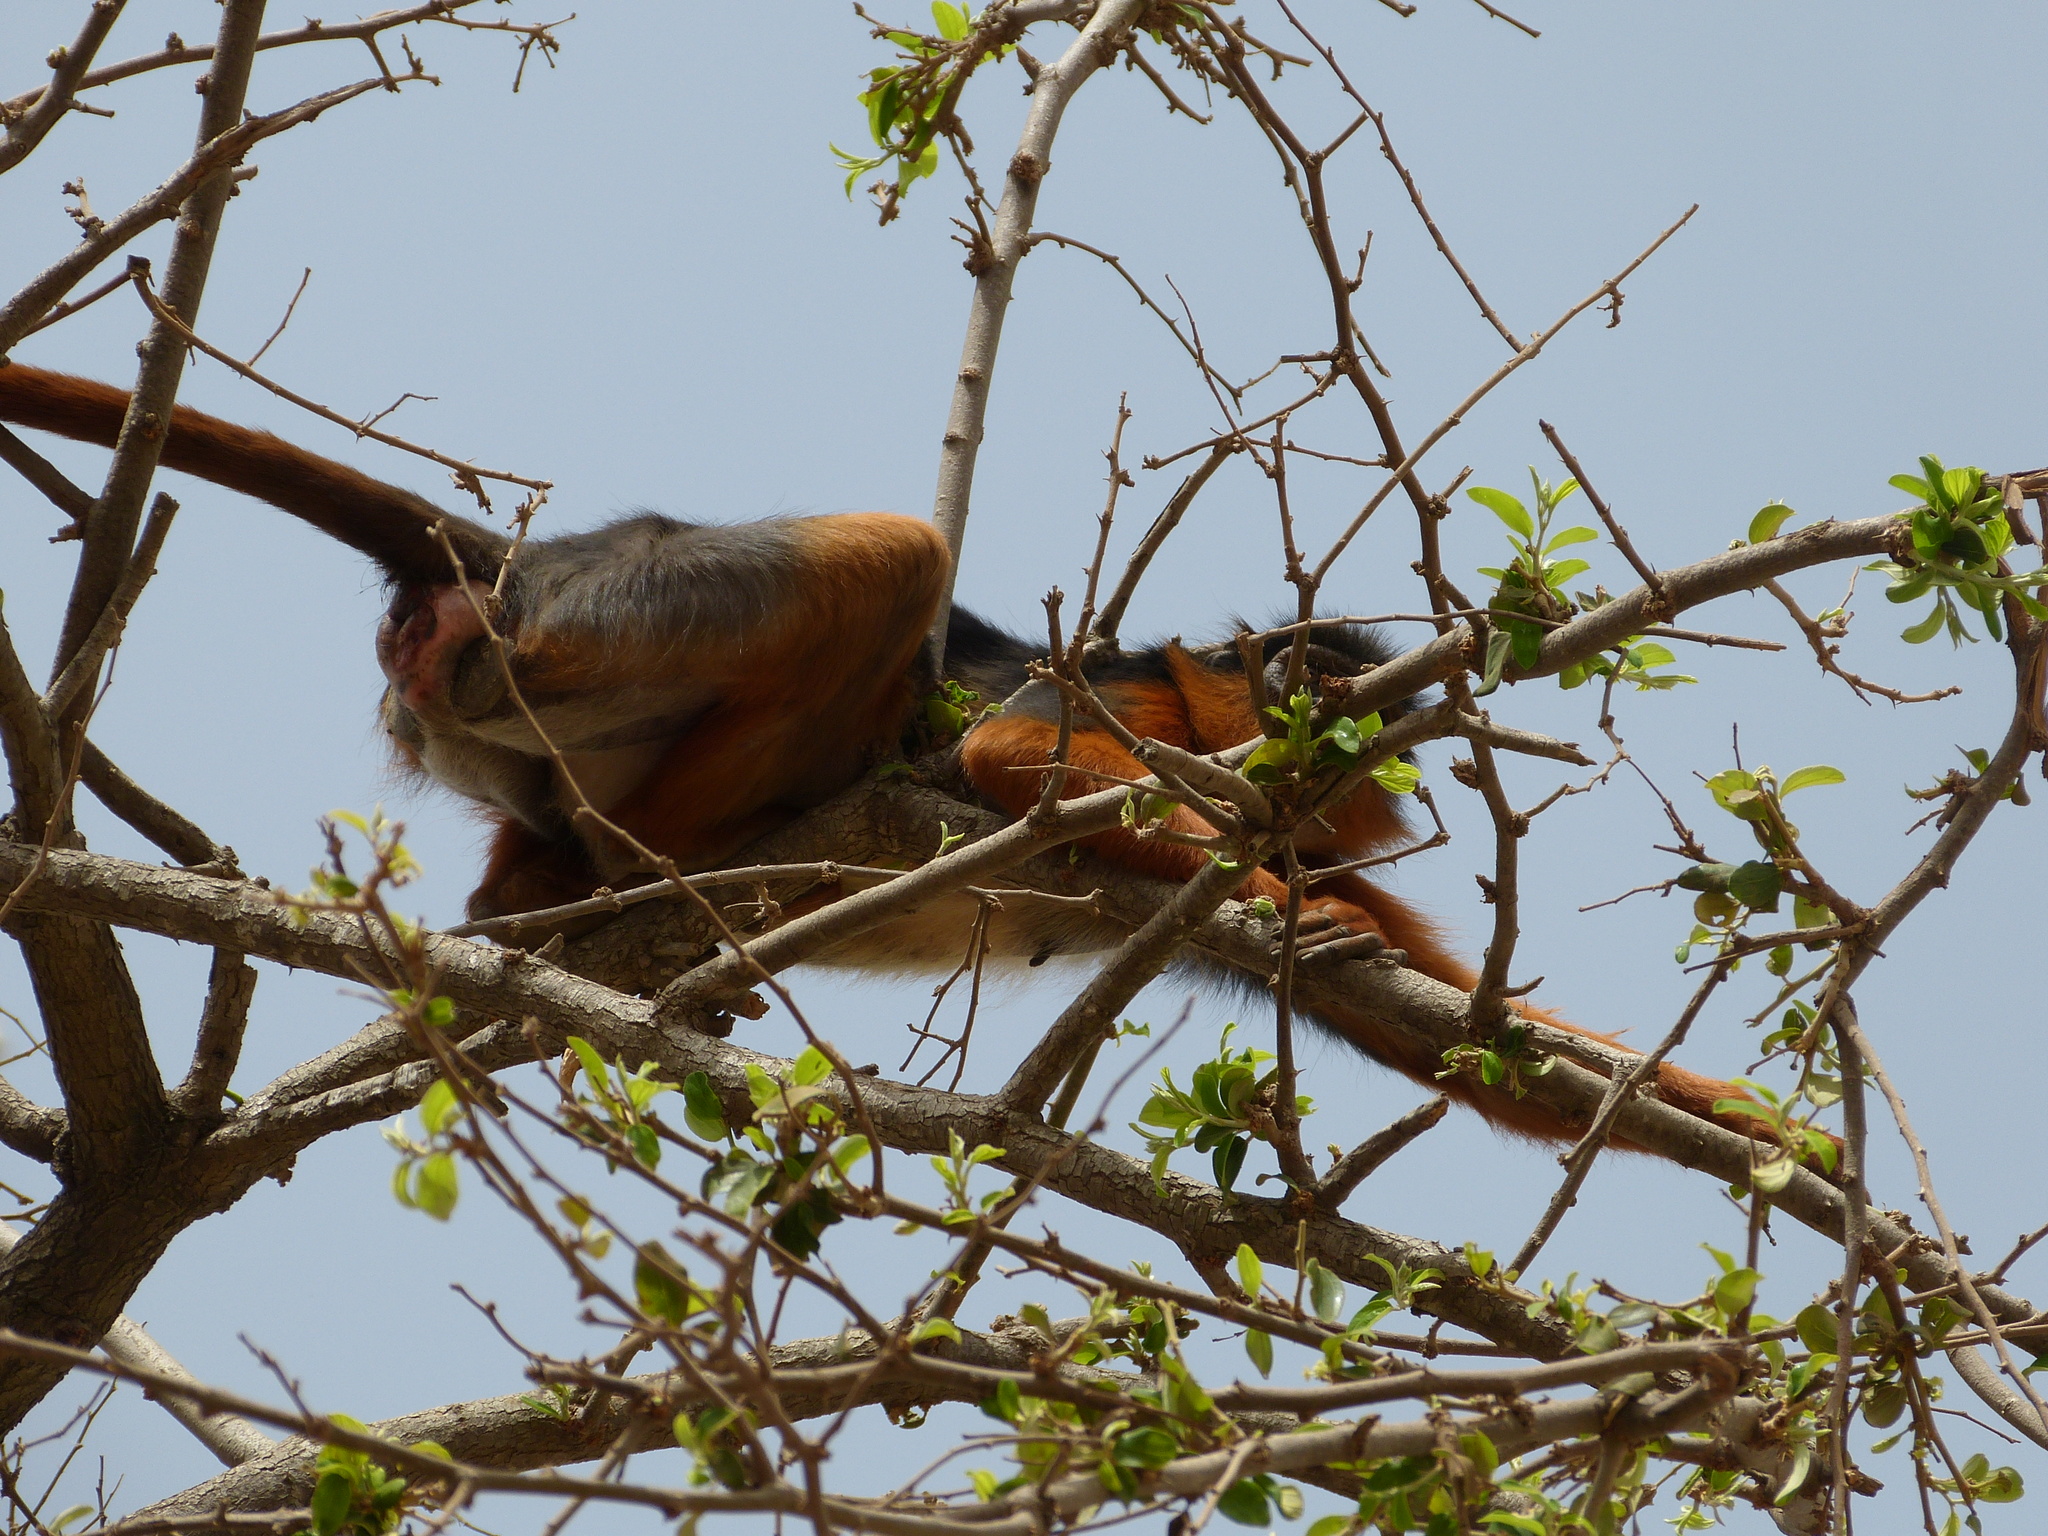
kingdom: Animalia
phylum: Chordata
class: Mammalia
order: Primates
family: Cercopithecidae
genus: Piliocolobus
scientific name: Piliocolobus badius
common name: Western red colobus
